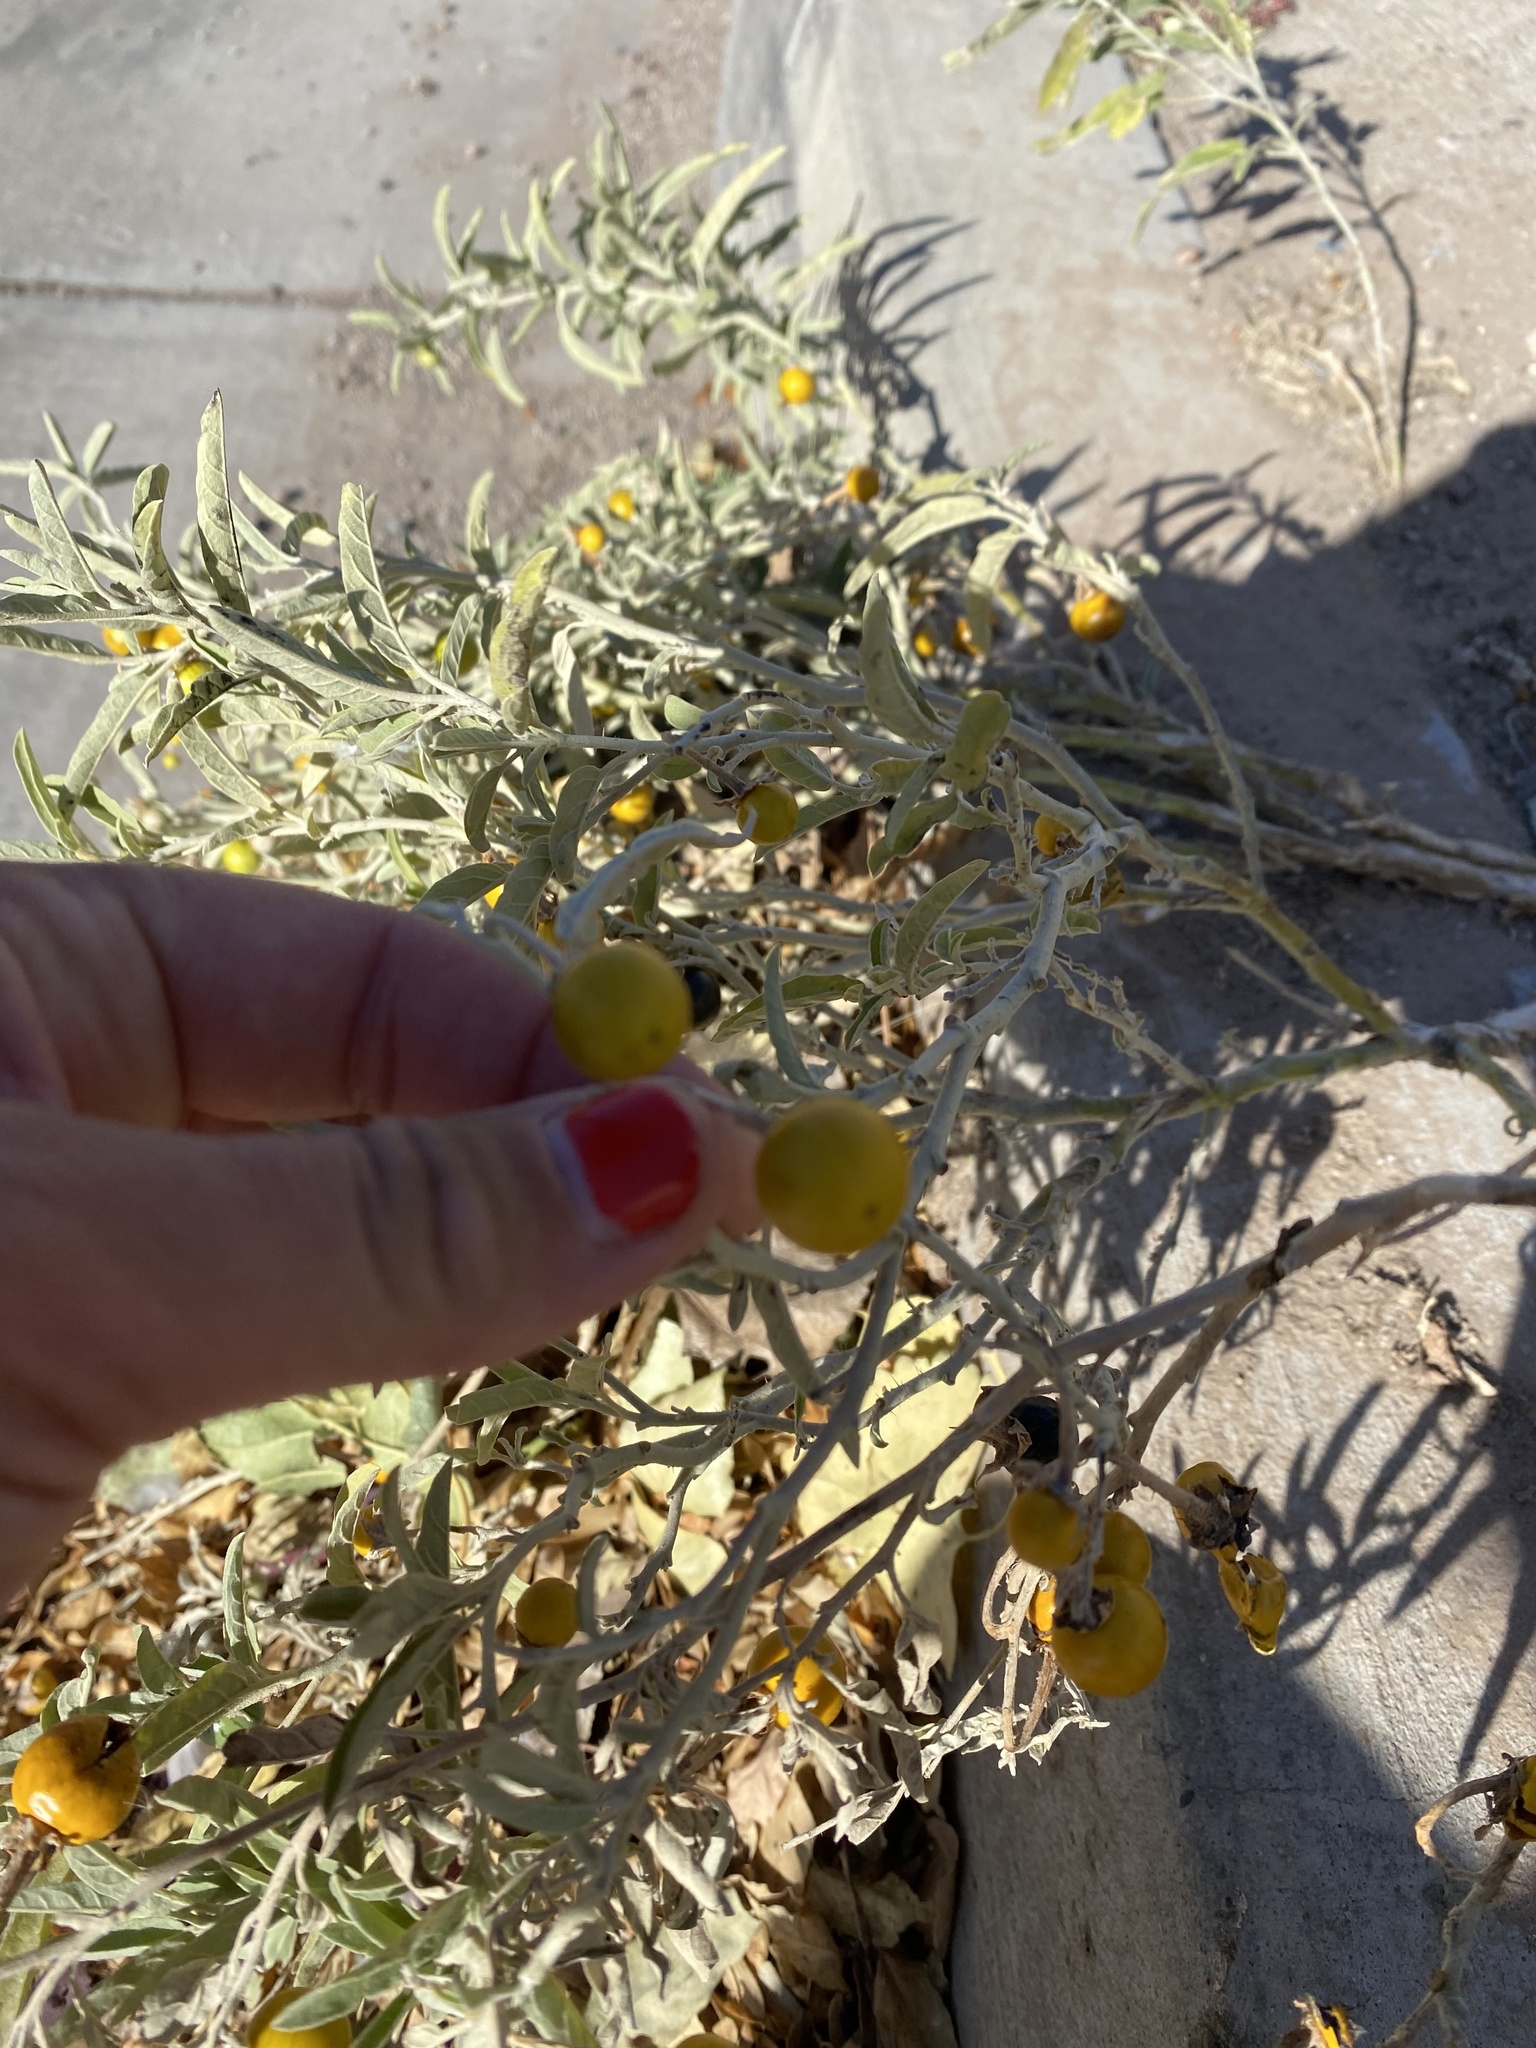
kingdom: Plantae
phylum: Tracheophyta
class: Magnoliopsida
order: Solanales
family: Solanaceae
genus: Solanum
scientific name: Solanum elaeagnifolium
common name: Silverleaf nightshade
